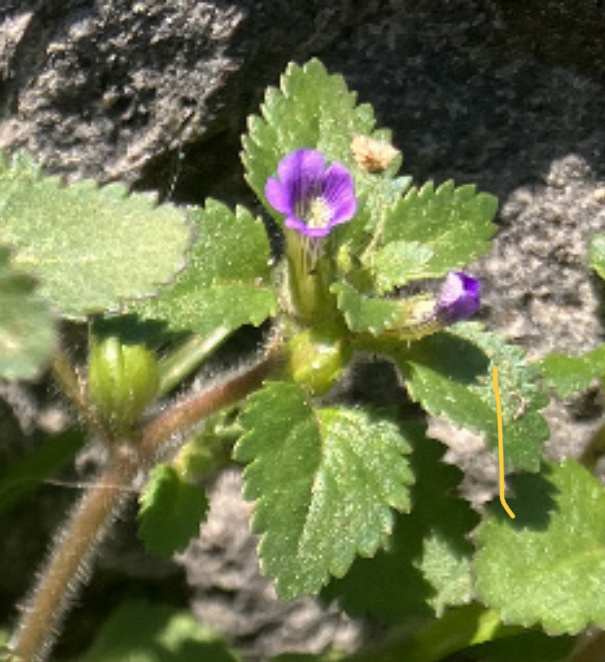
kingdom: Plantae
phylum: Tracheophyta
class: Magnoliopsida
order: Lamiales
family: Plantaginaceae
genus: Stemodia
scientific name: Stemodia verticillata
